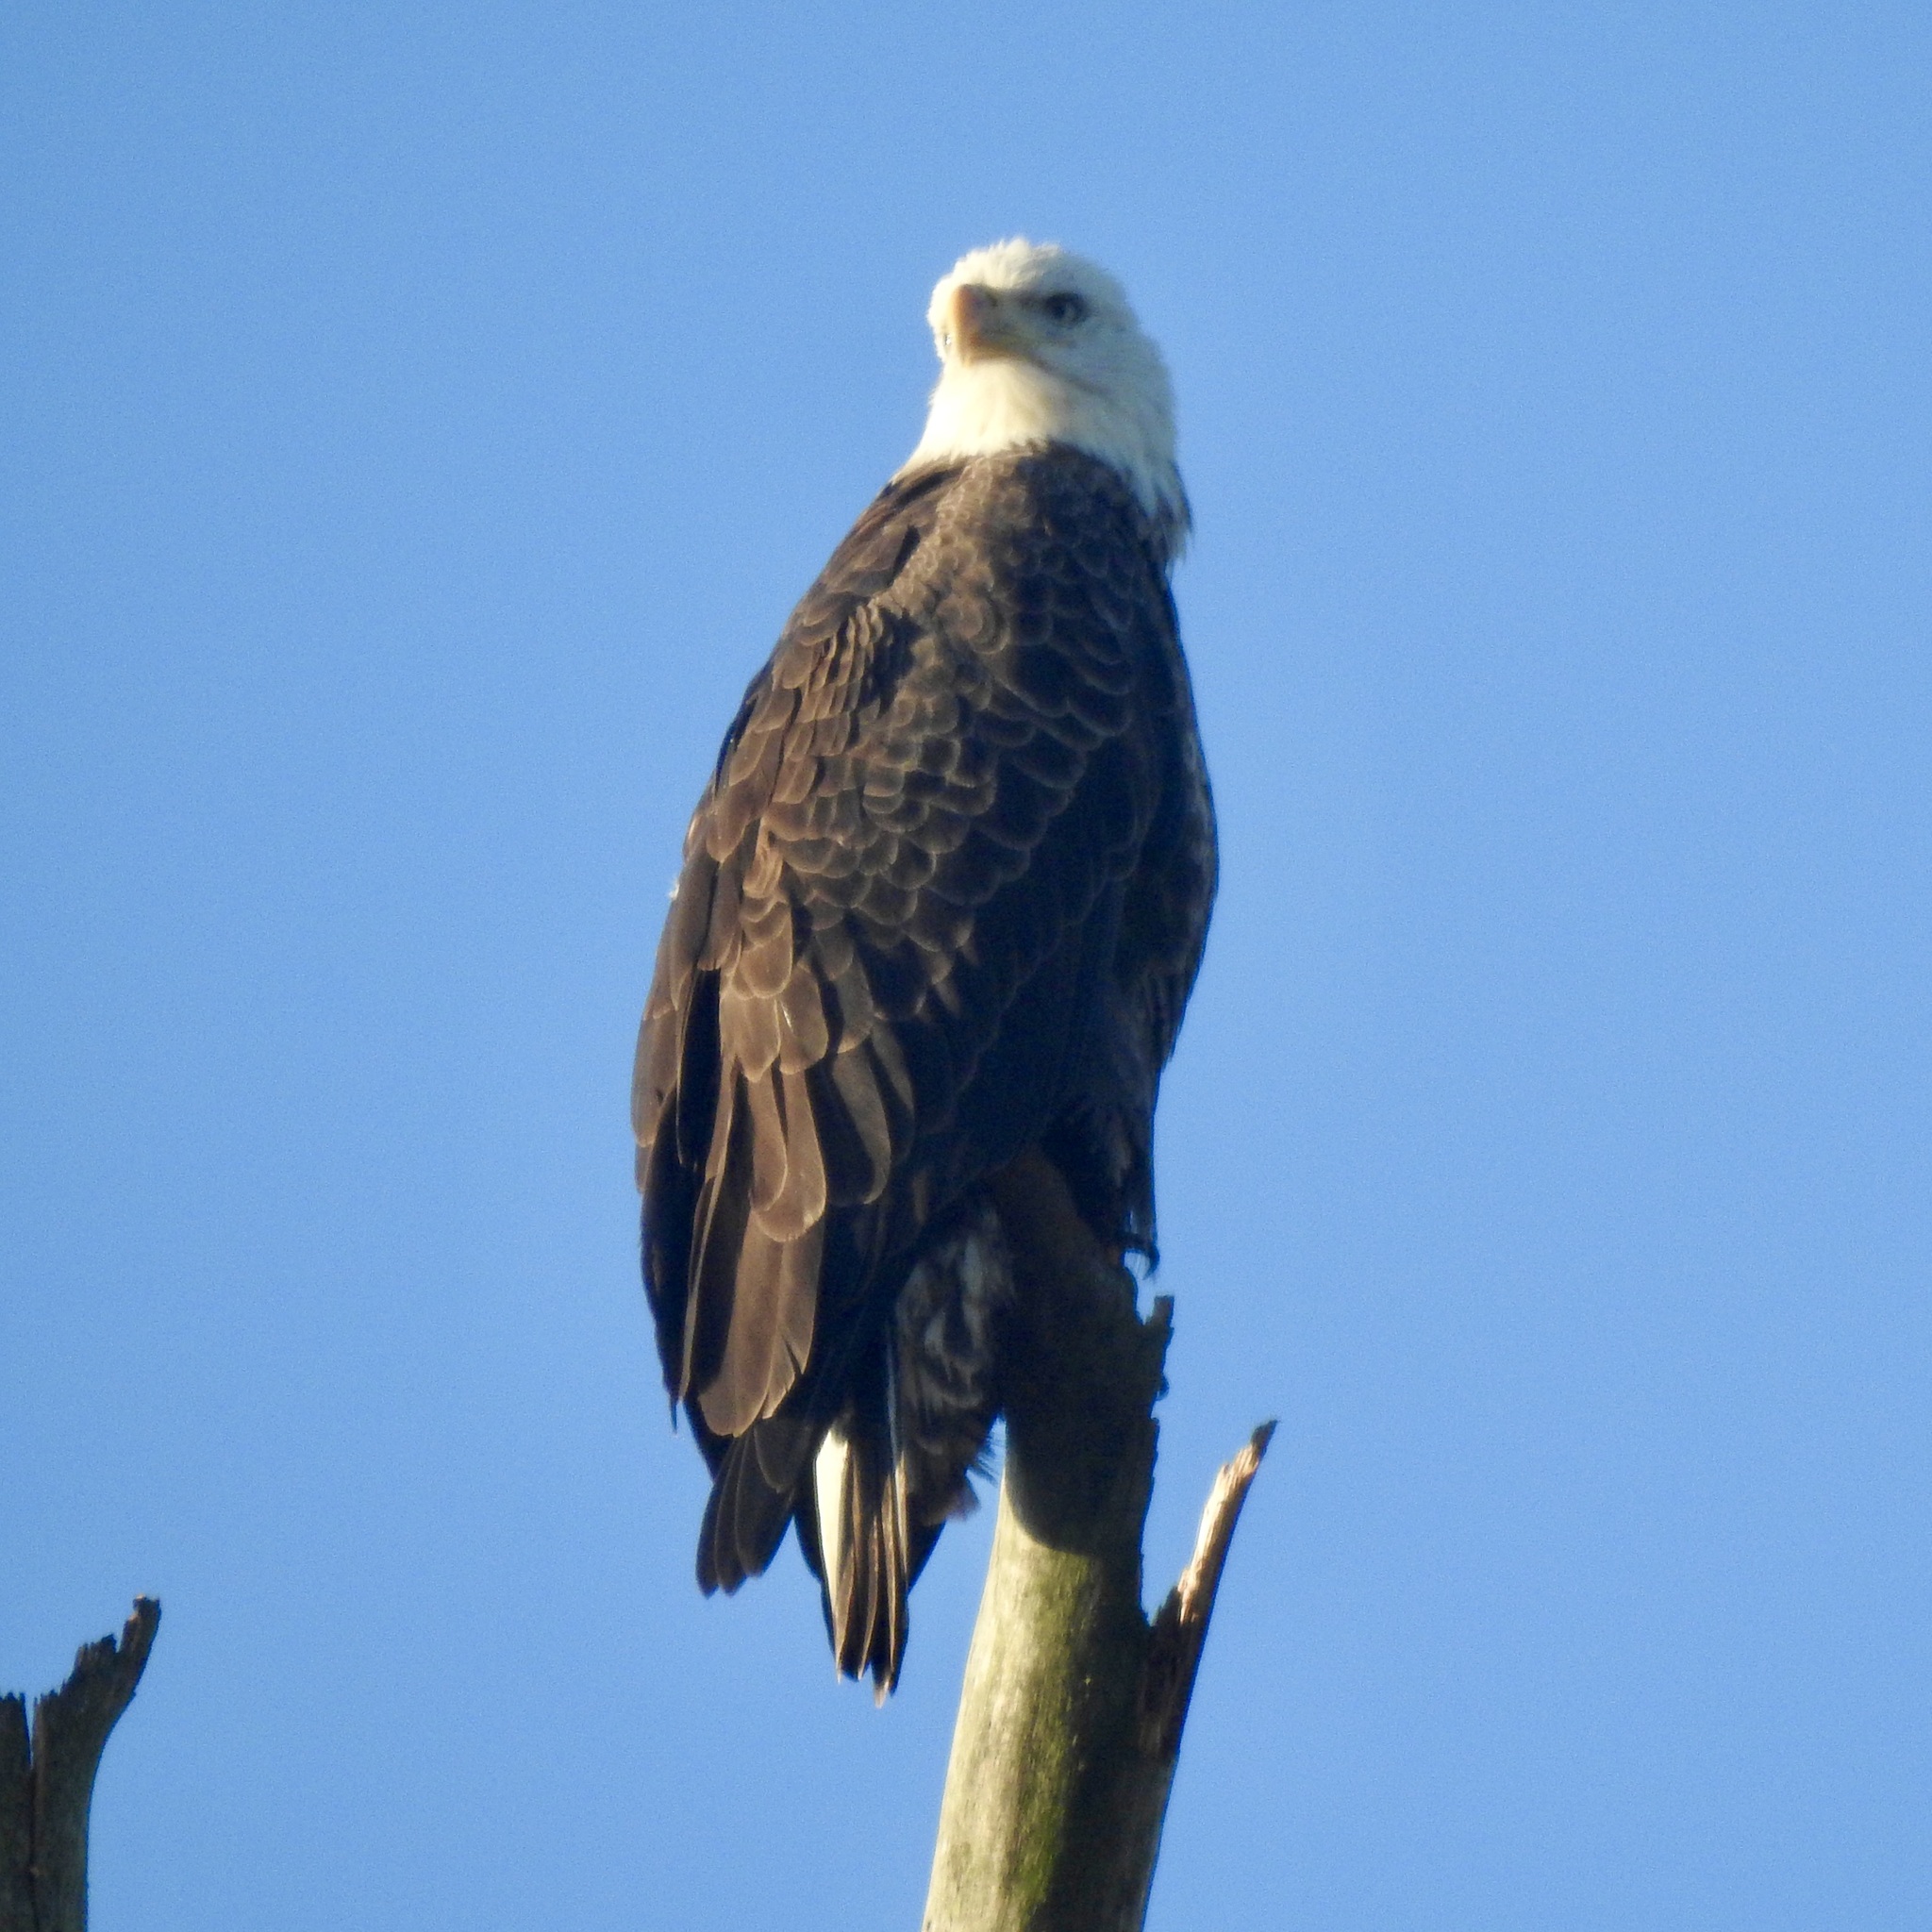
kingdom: Animalia
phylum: Chordata
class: Aves
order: Accipitriformes
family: Accipitridae
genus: Haliaeetus
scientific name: Haliaeetus leucocephalus
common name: Bald eagle
